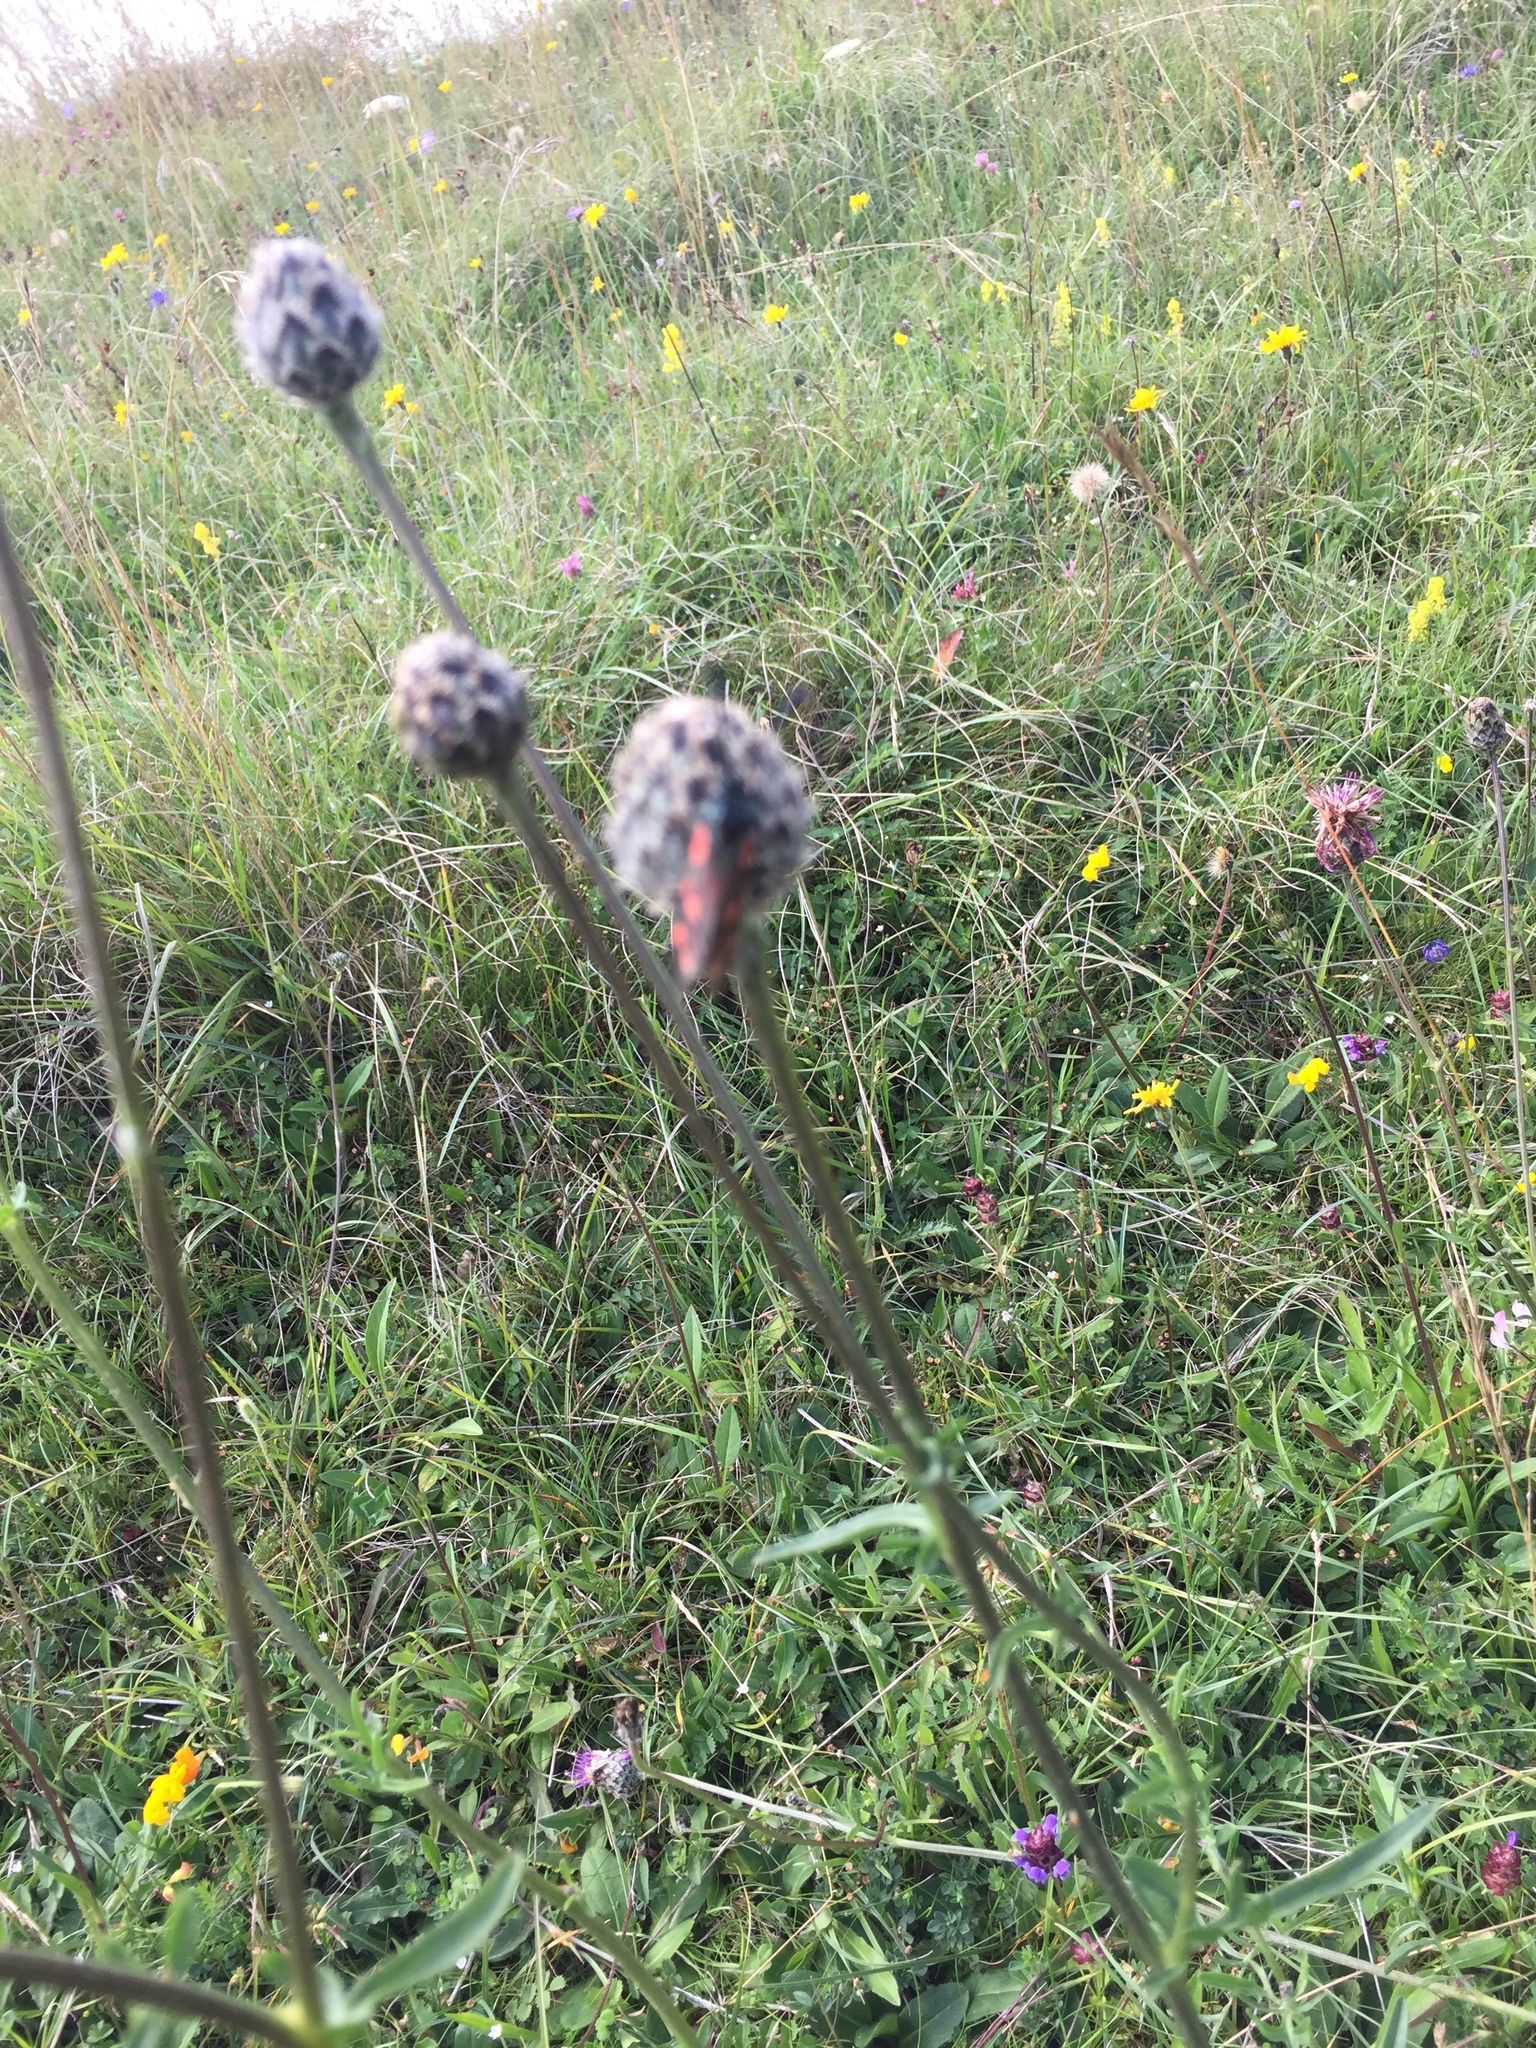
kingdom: Animalia
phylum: Arthropoda
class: Insecta
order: Lepidoptera
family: Zygaenidae
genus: Zygaena
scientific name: Zygaena filipendulae
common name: Six-spot burnet
